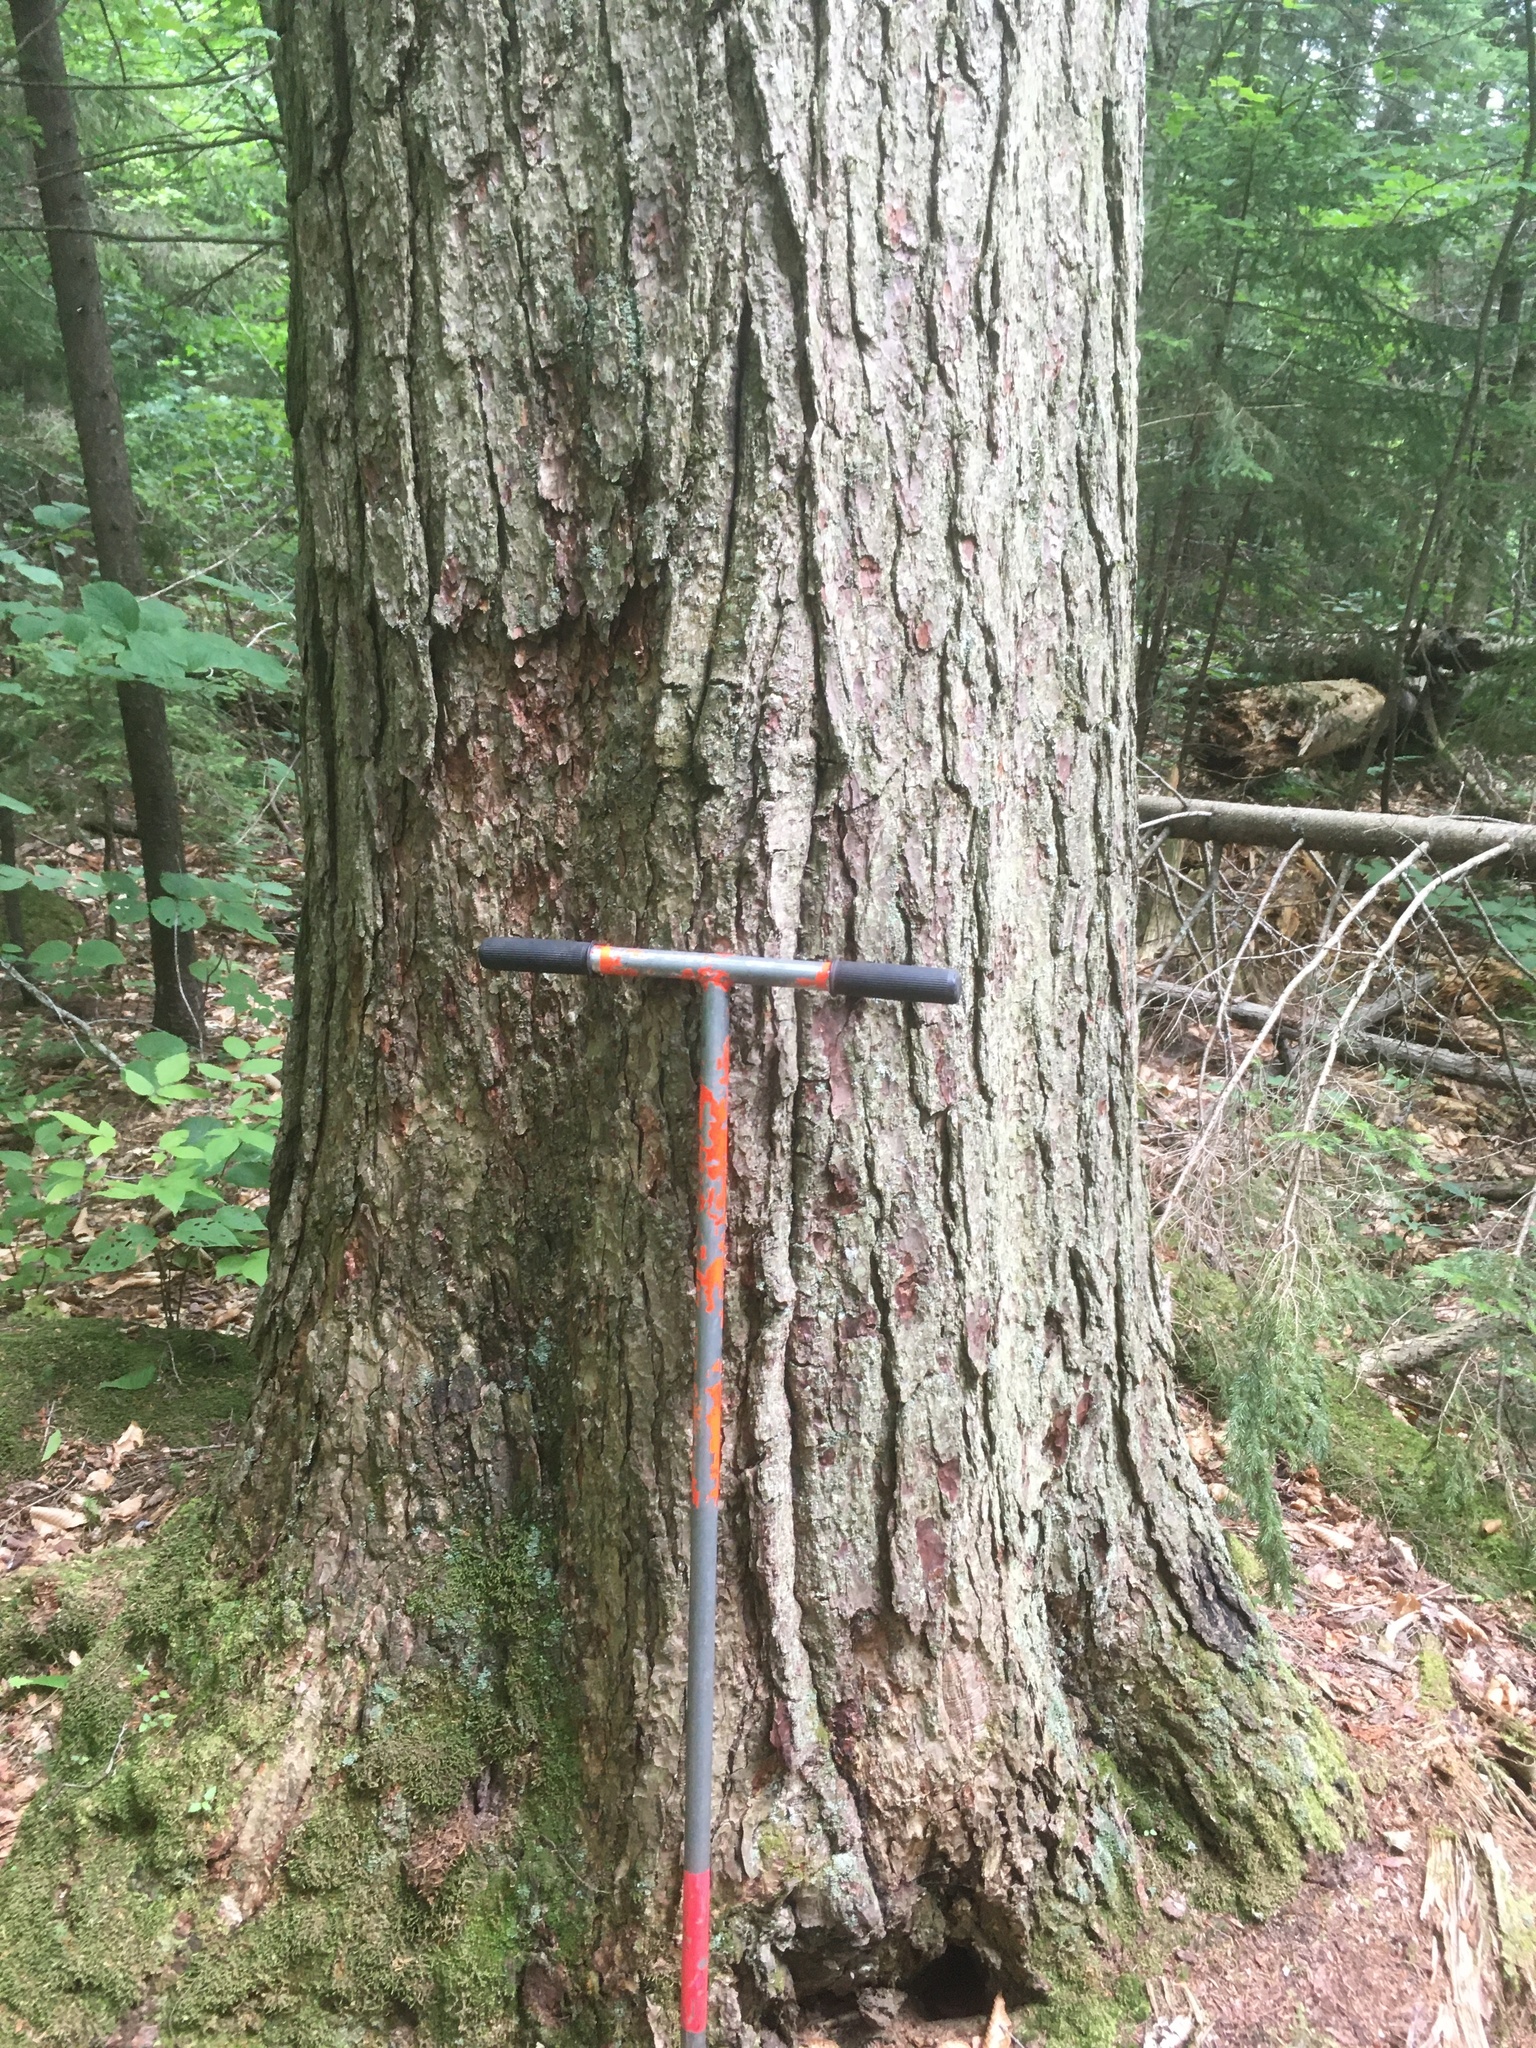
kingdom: Plantae
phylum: Tracheophyta
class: Pinopsida
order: Pinales
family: Pinaceae
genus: Tsuga
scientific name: Tsuga canadensis
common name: Eastern hemlock
